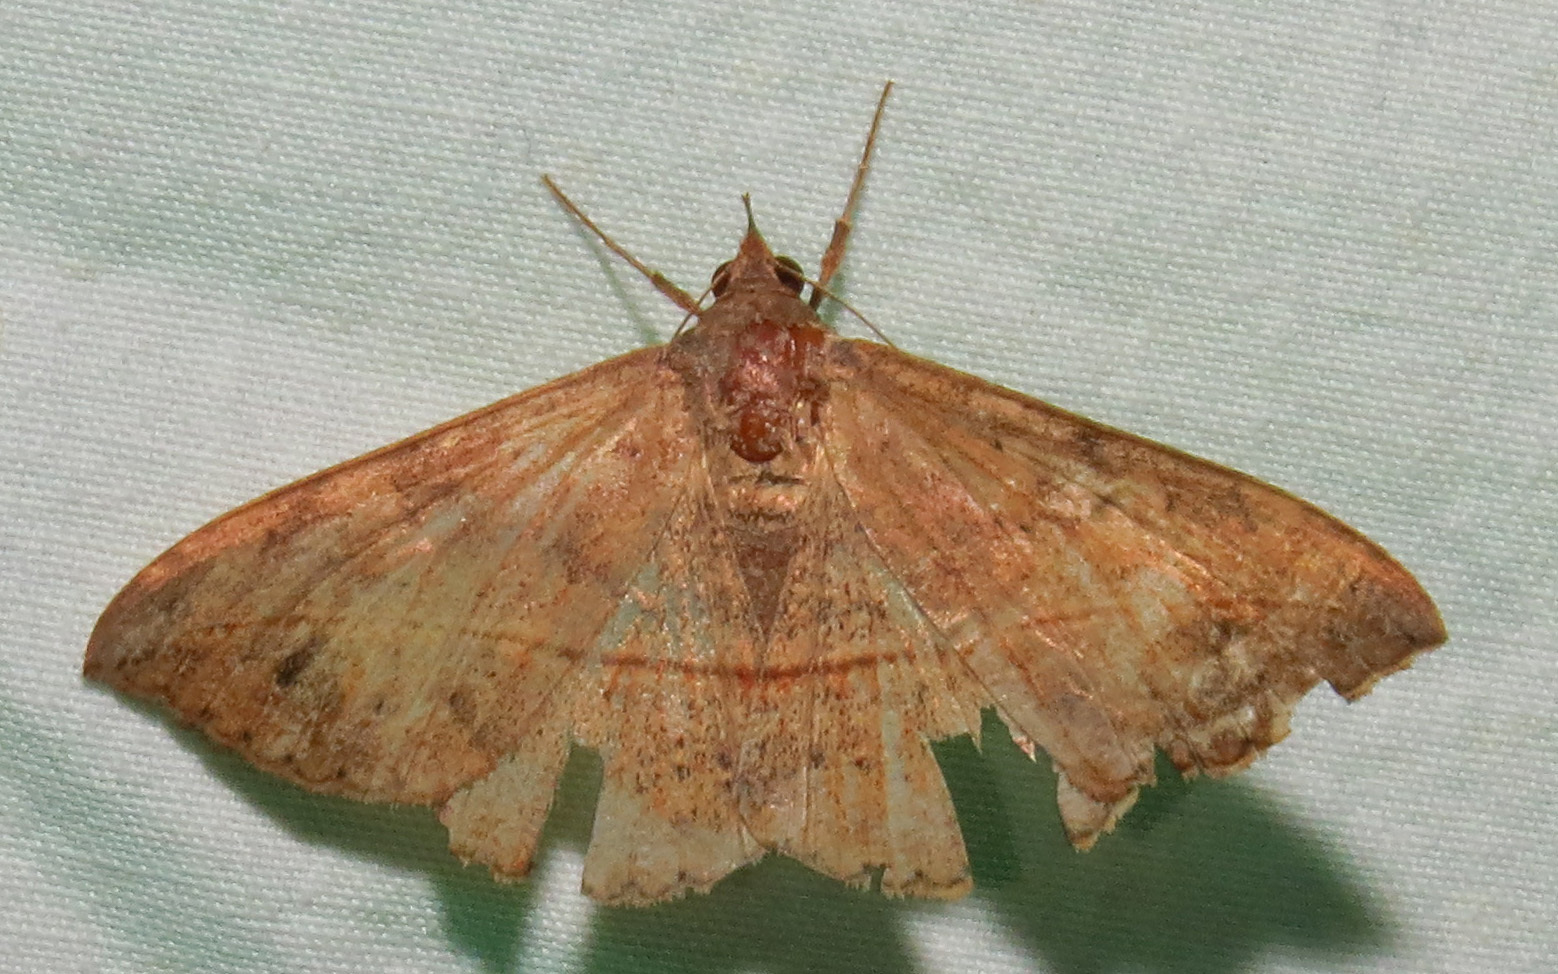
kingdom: Animalia
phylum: Arthropoda
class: Insecta
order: Lepidoptera
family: Erebidae
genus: Anticarsia
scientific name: Anticarsia gemmatalis
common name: Cutworm moth
